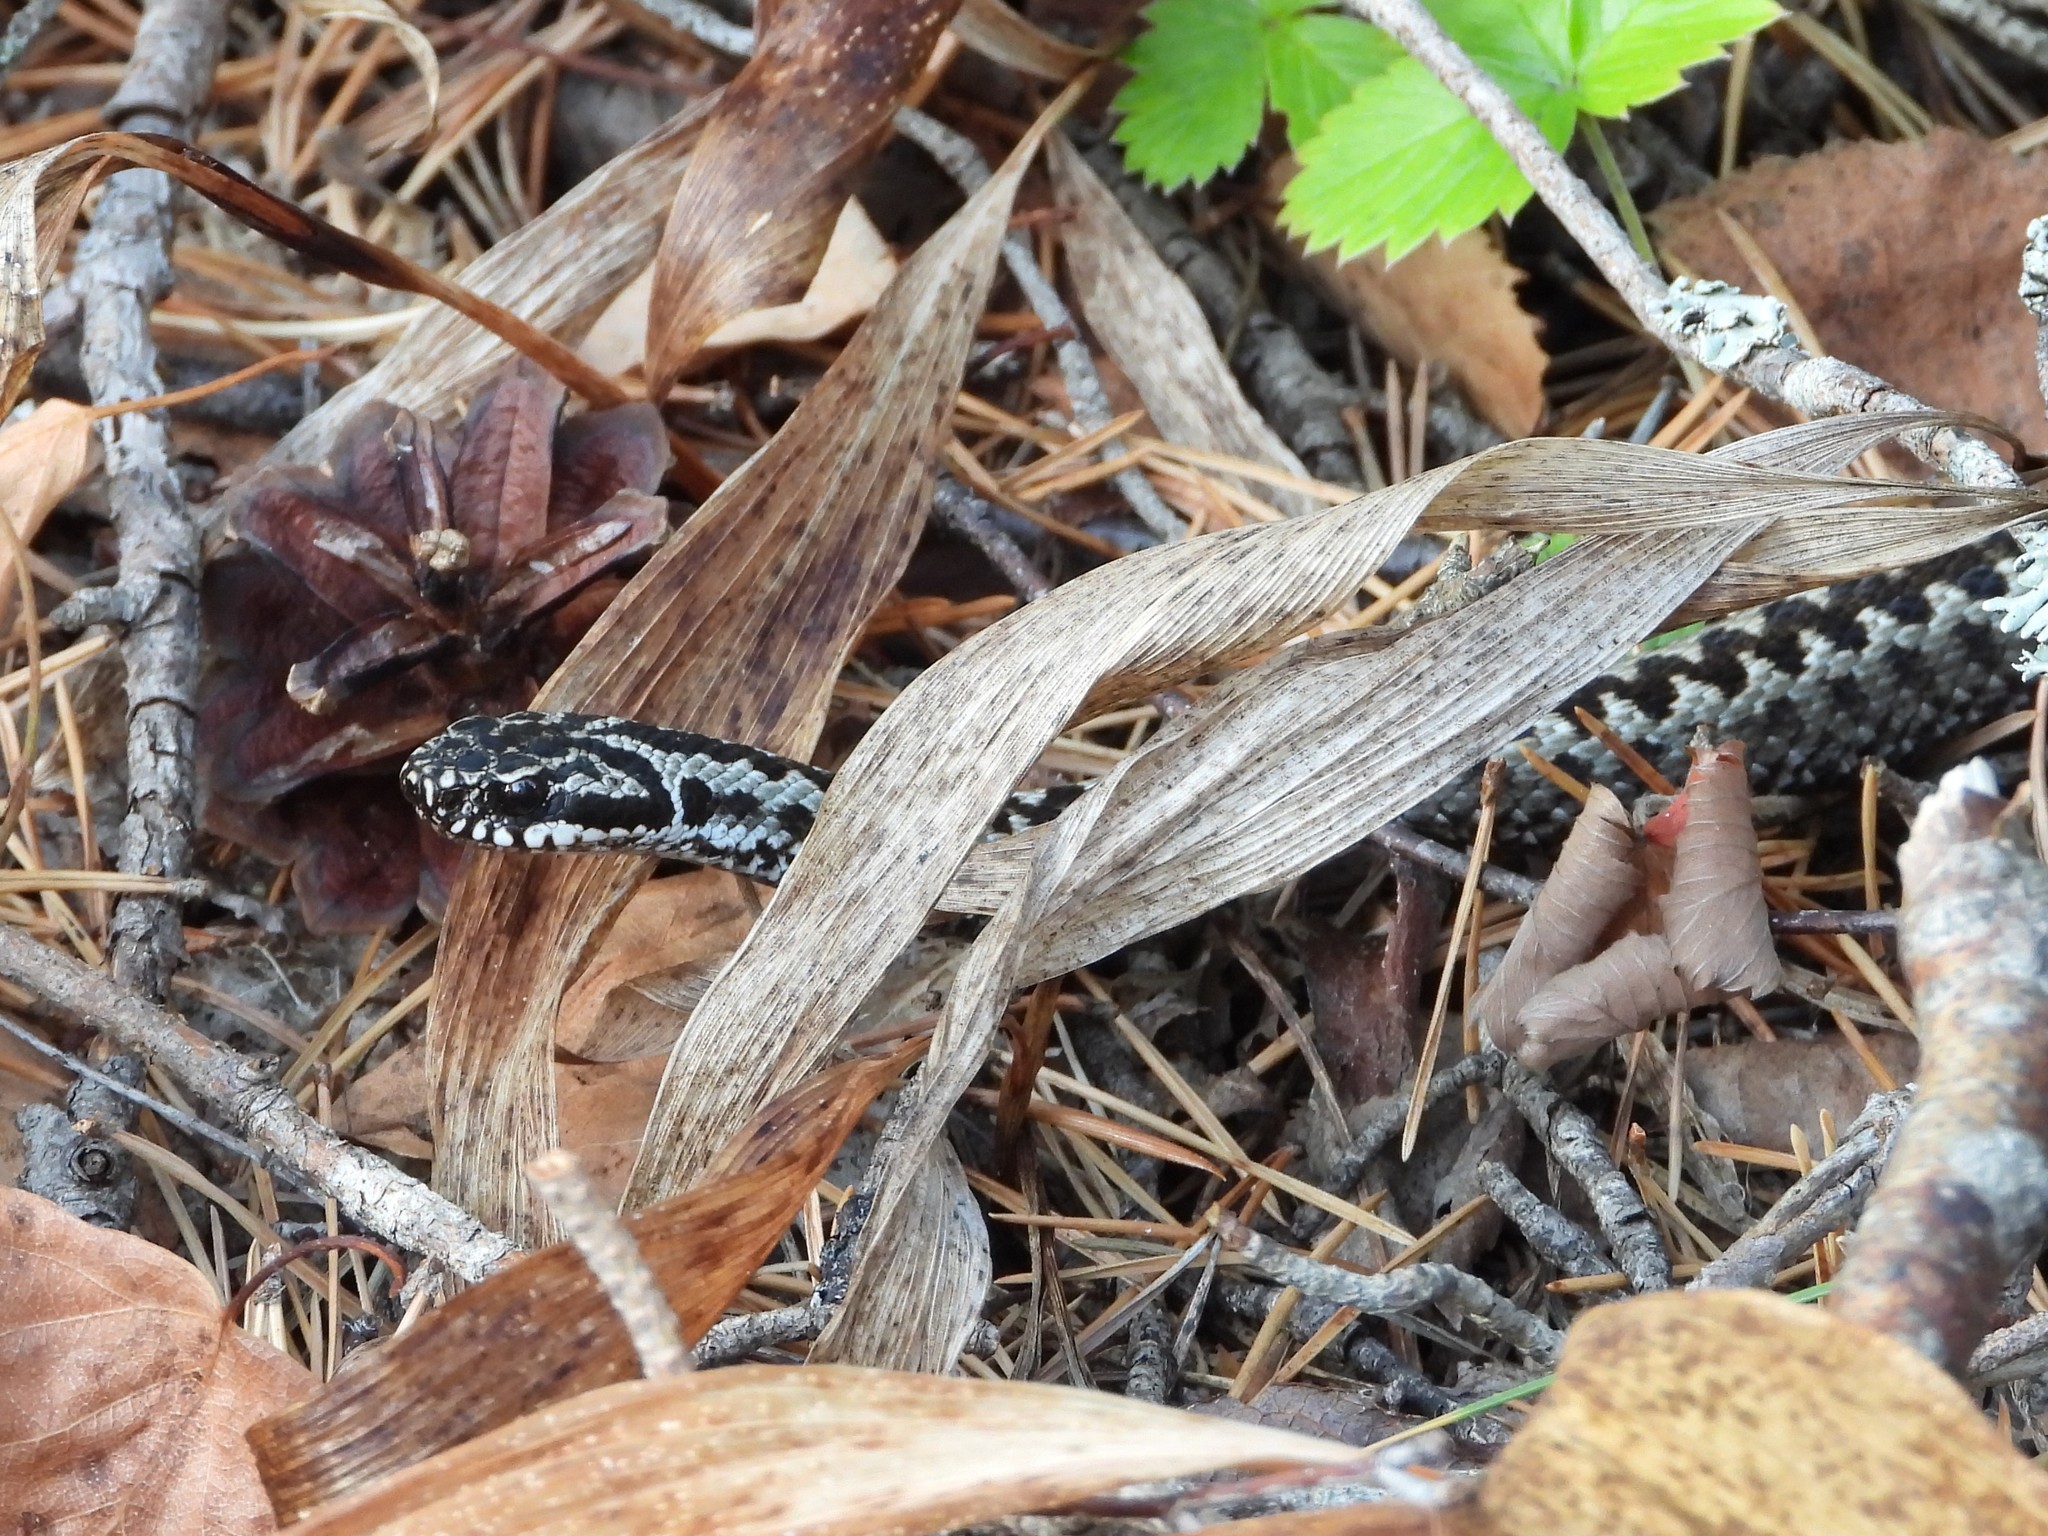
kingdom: Animalia
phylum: Chordata
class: Squamata
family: Viperidae
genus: Vipera
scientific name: Vipera berus
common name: Adder
